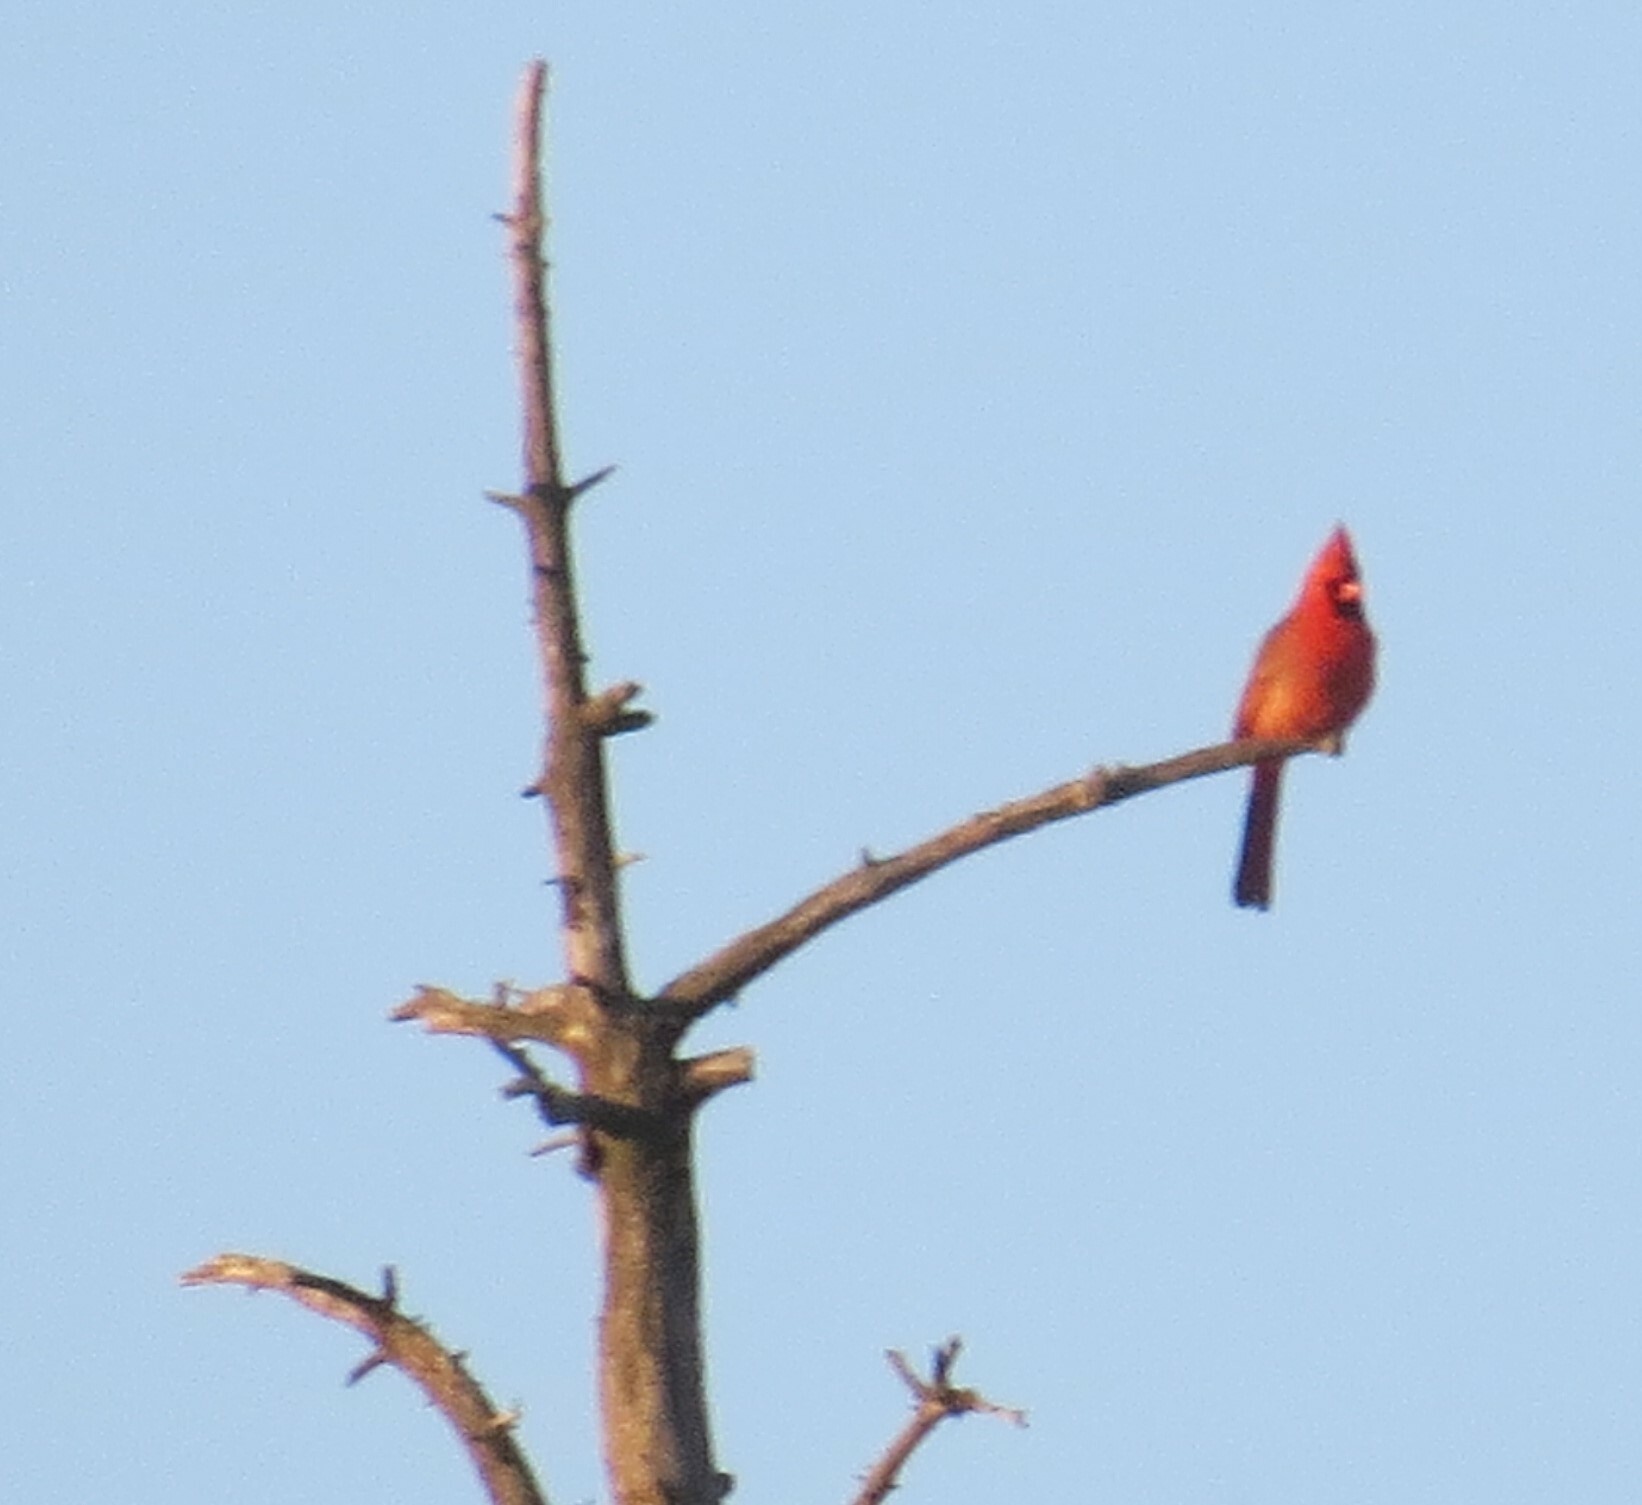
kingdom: Animalia
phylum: Chordata
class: Aves
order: Passeriformes
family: Cardinalidae
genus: Cardinalis
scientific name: Cardinalis cardinalis
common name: Northern cardinal
